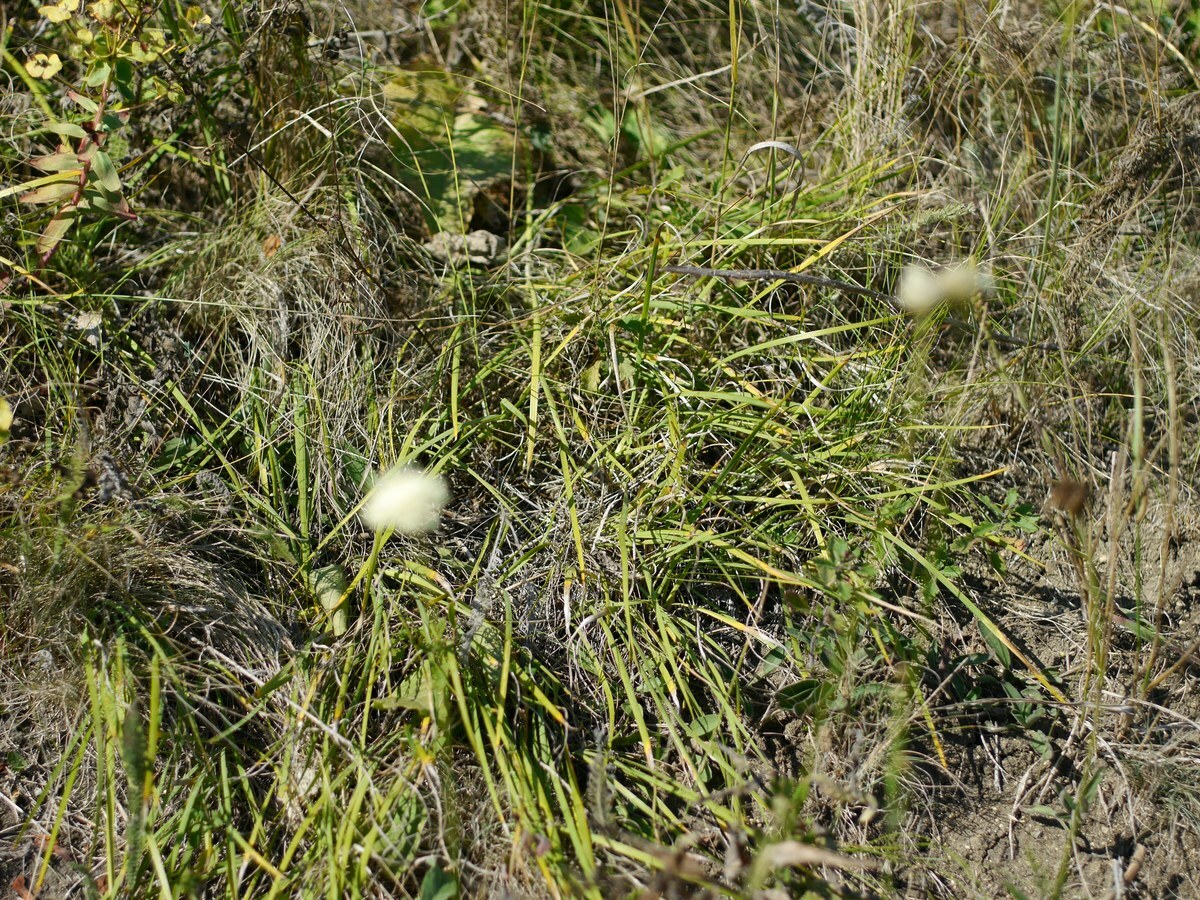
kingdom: Plantae
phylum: Tracheophyta
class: Liliopsida
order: Asparagales
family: Iridaceae
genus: Iris
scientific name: Iris pontica
